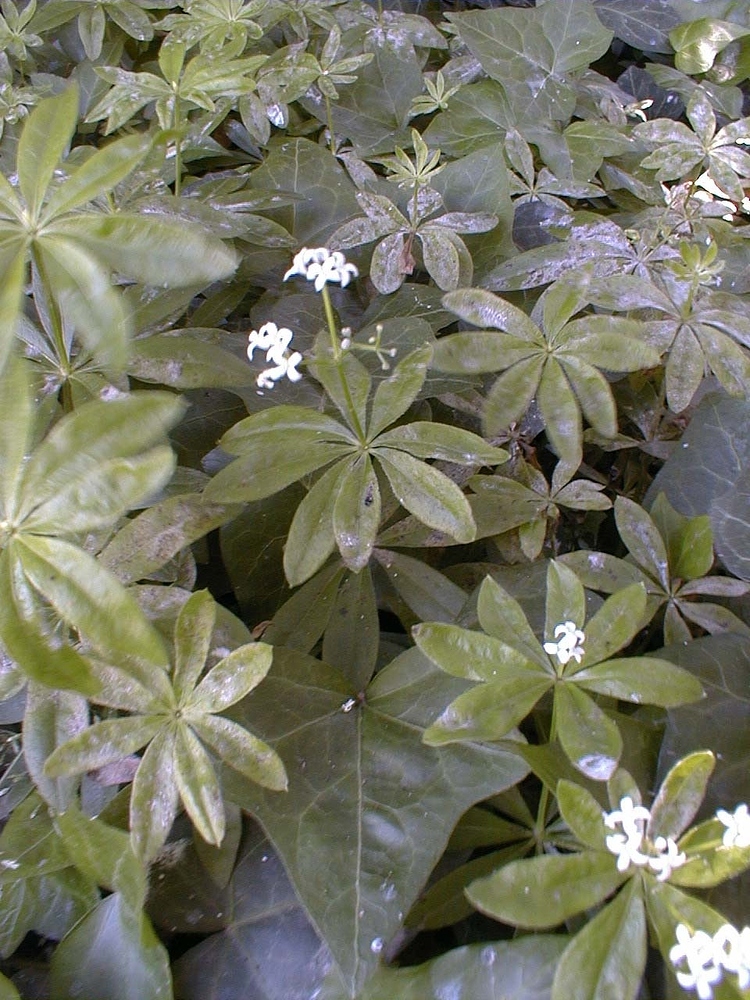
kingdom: Plantae
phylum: Tracheophyta
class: Magnoliopsida
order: Gentianales
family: Rubiaceae
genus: Galium
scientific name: Galium odoratum
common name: Sweet woodruff
